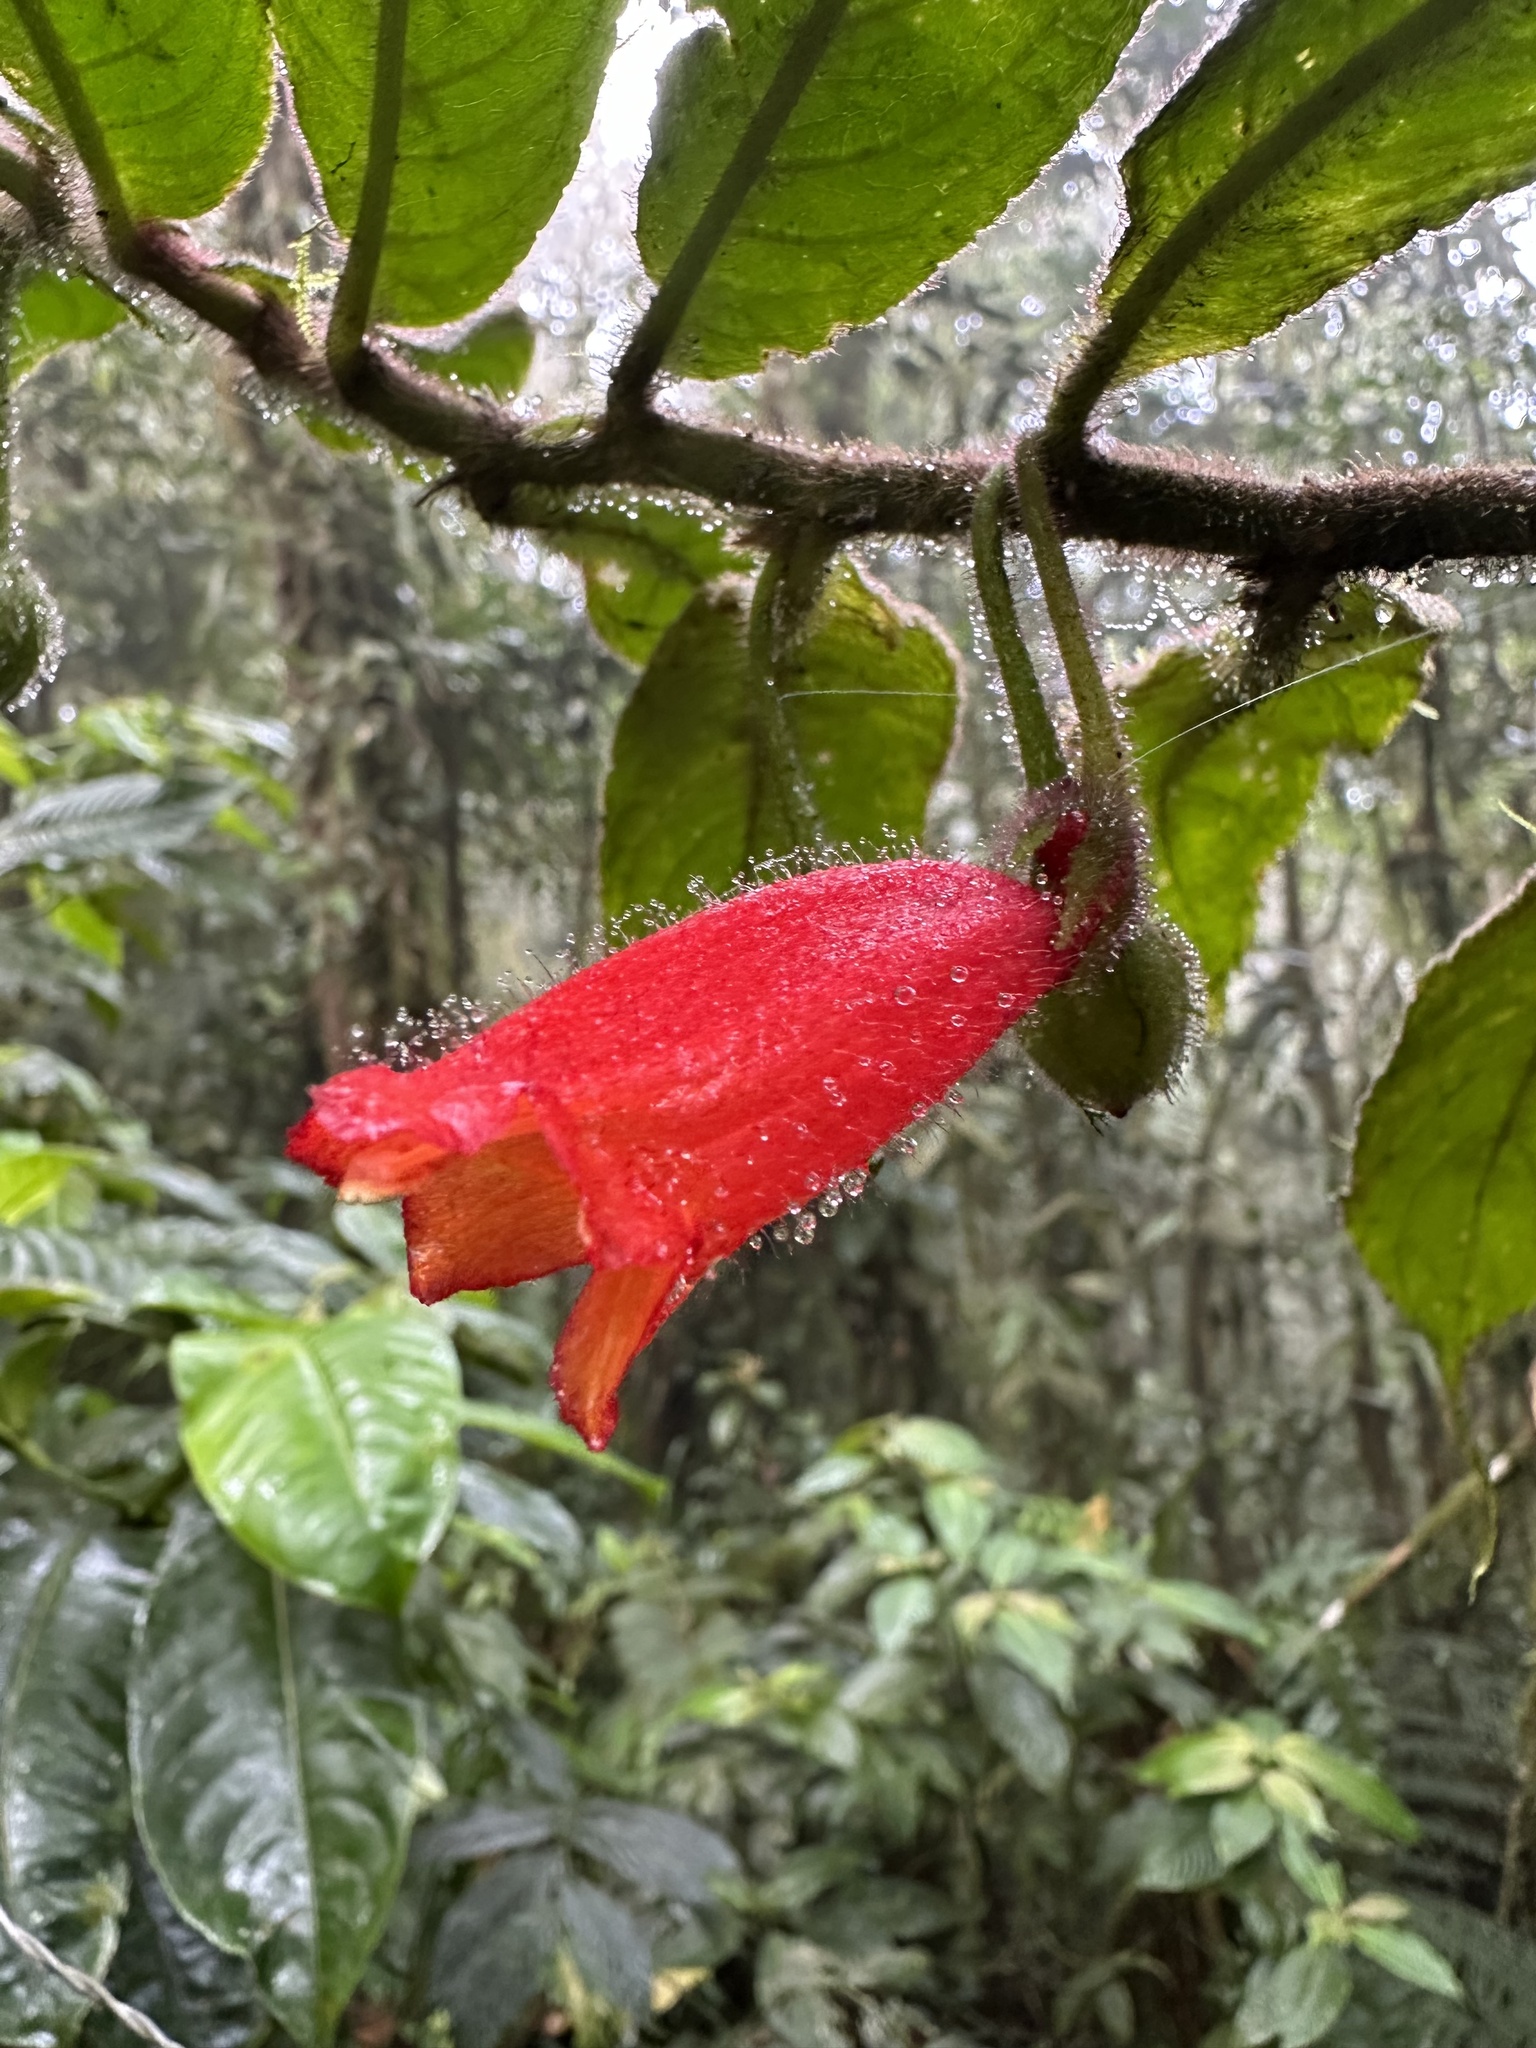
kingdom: Plantae
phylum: Tracheophyta
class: Magnoliopsida
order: Lamiales
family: Gesneriaceae
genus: Columnea
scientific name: Columnea anisophylla
